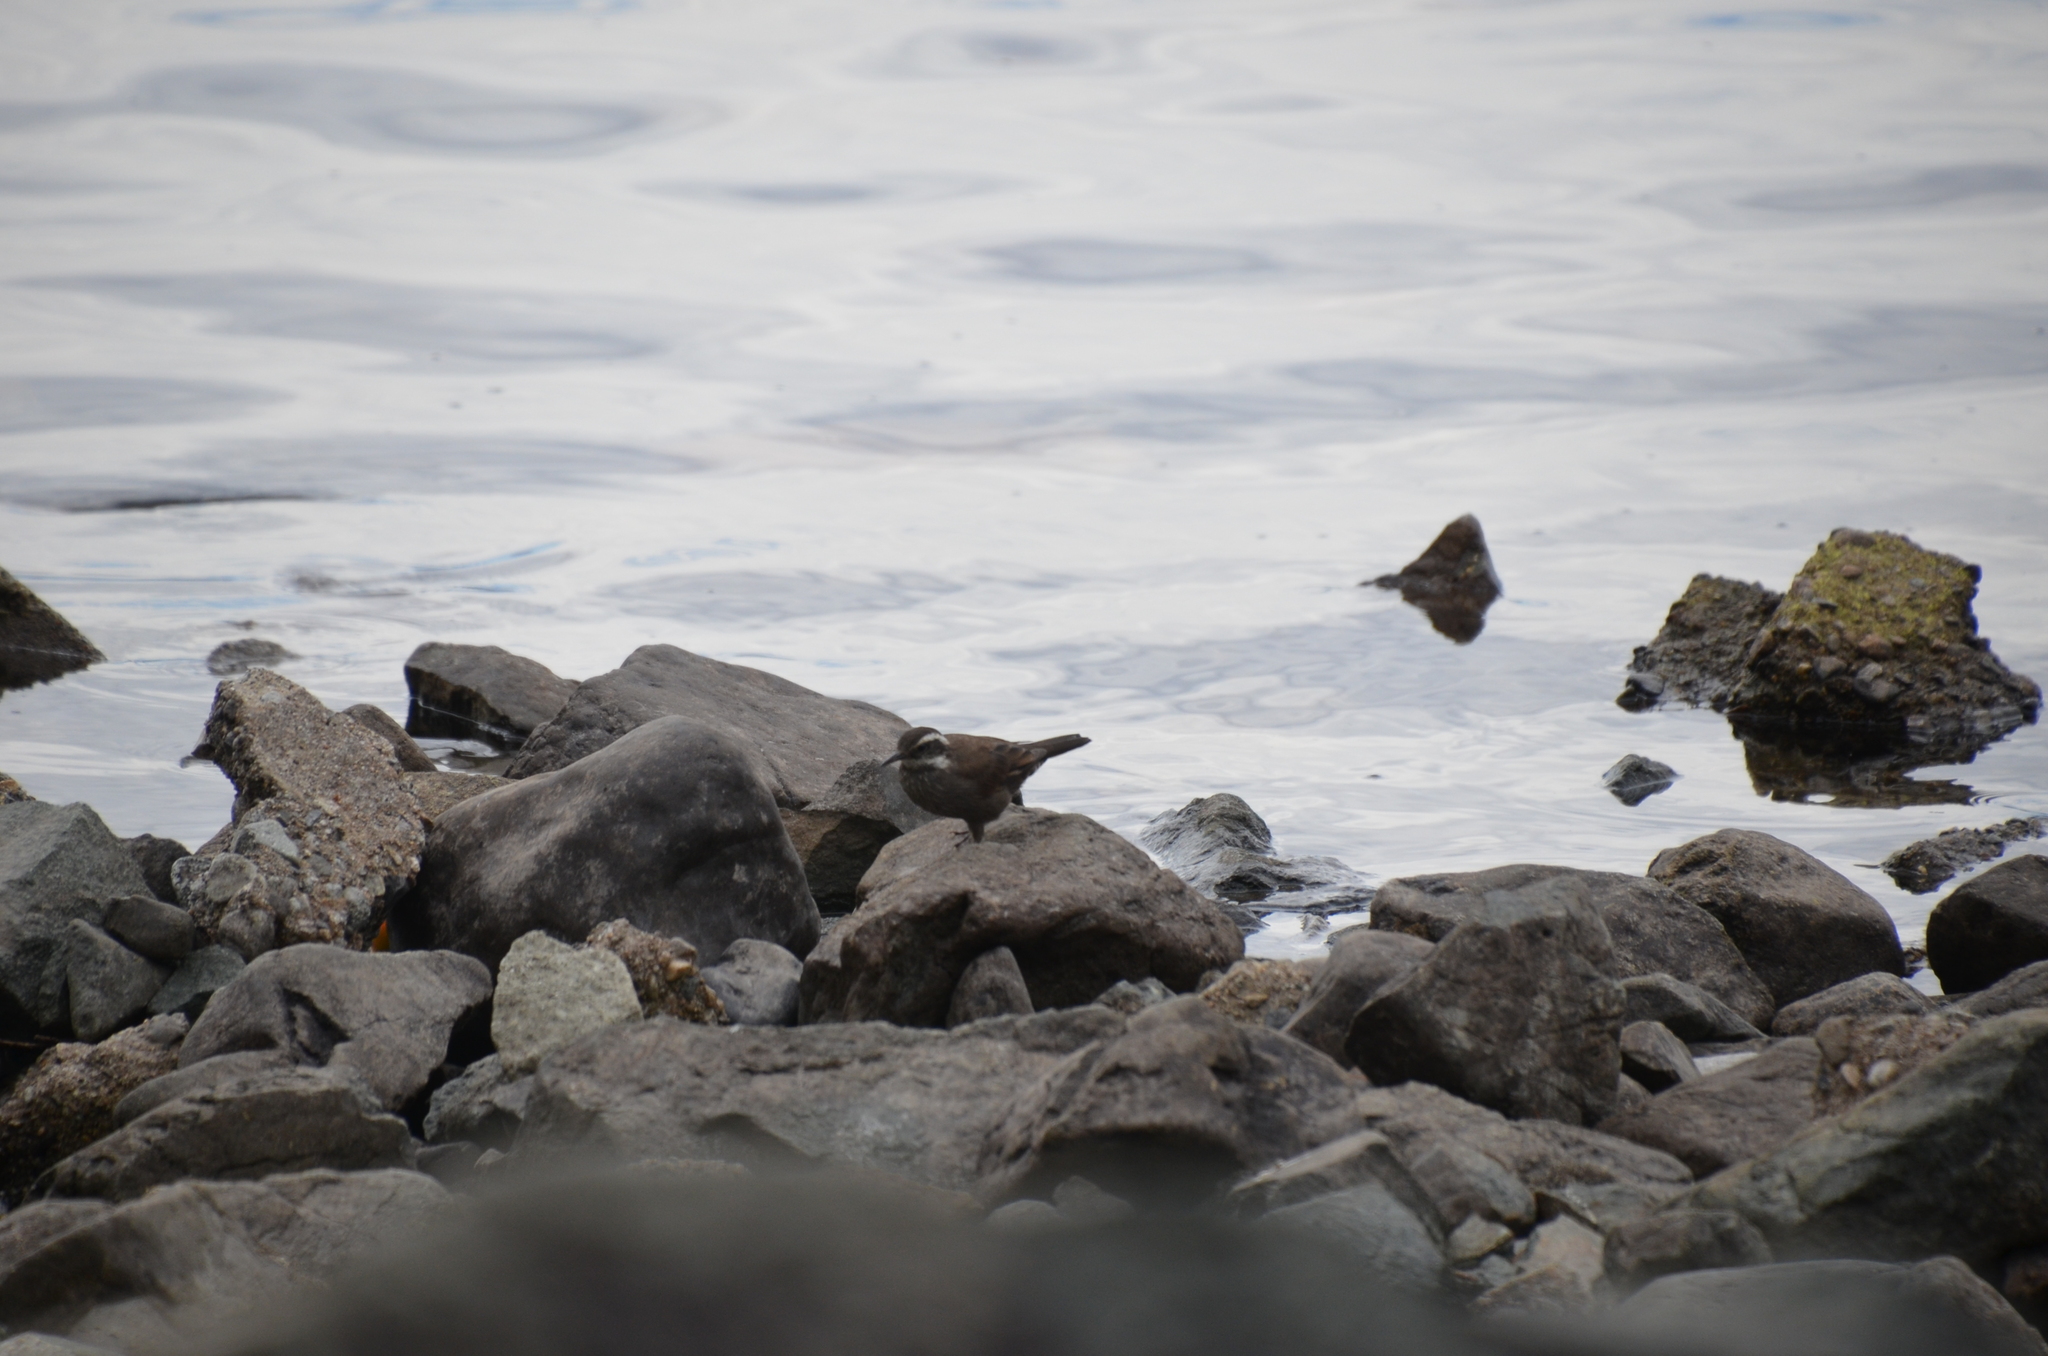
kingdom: Animalia
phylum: Chordata
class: Aves
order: Passeriformes
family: Furnariidae
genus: Cinclodes
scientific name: Cinclodes patagonicus
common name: Dark-bellied cinclodes
